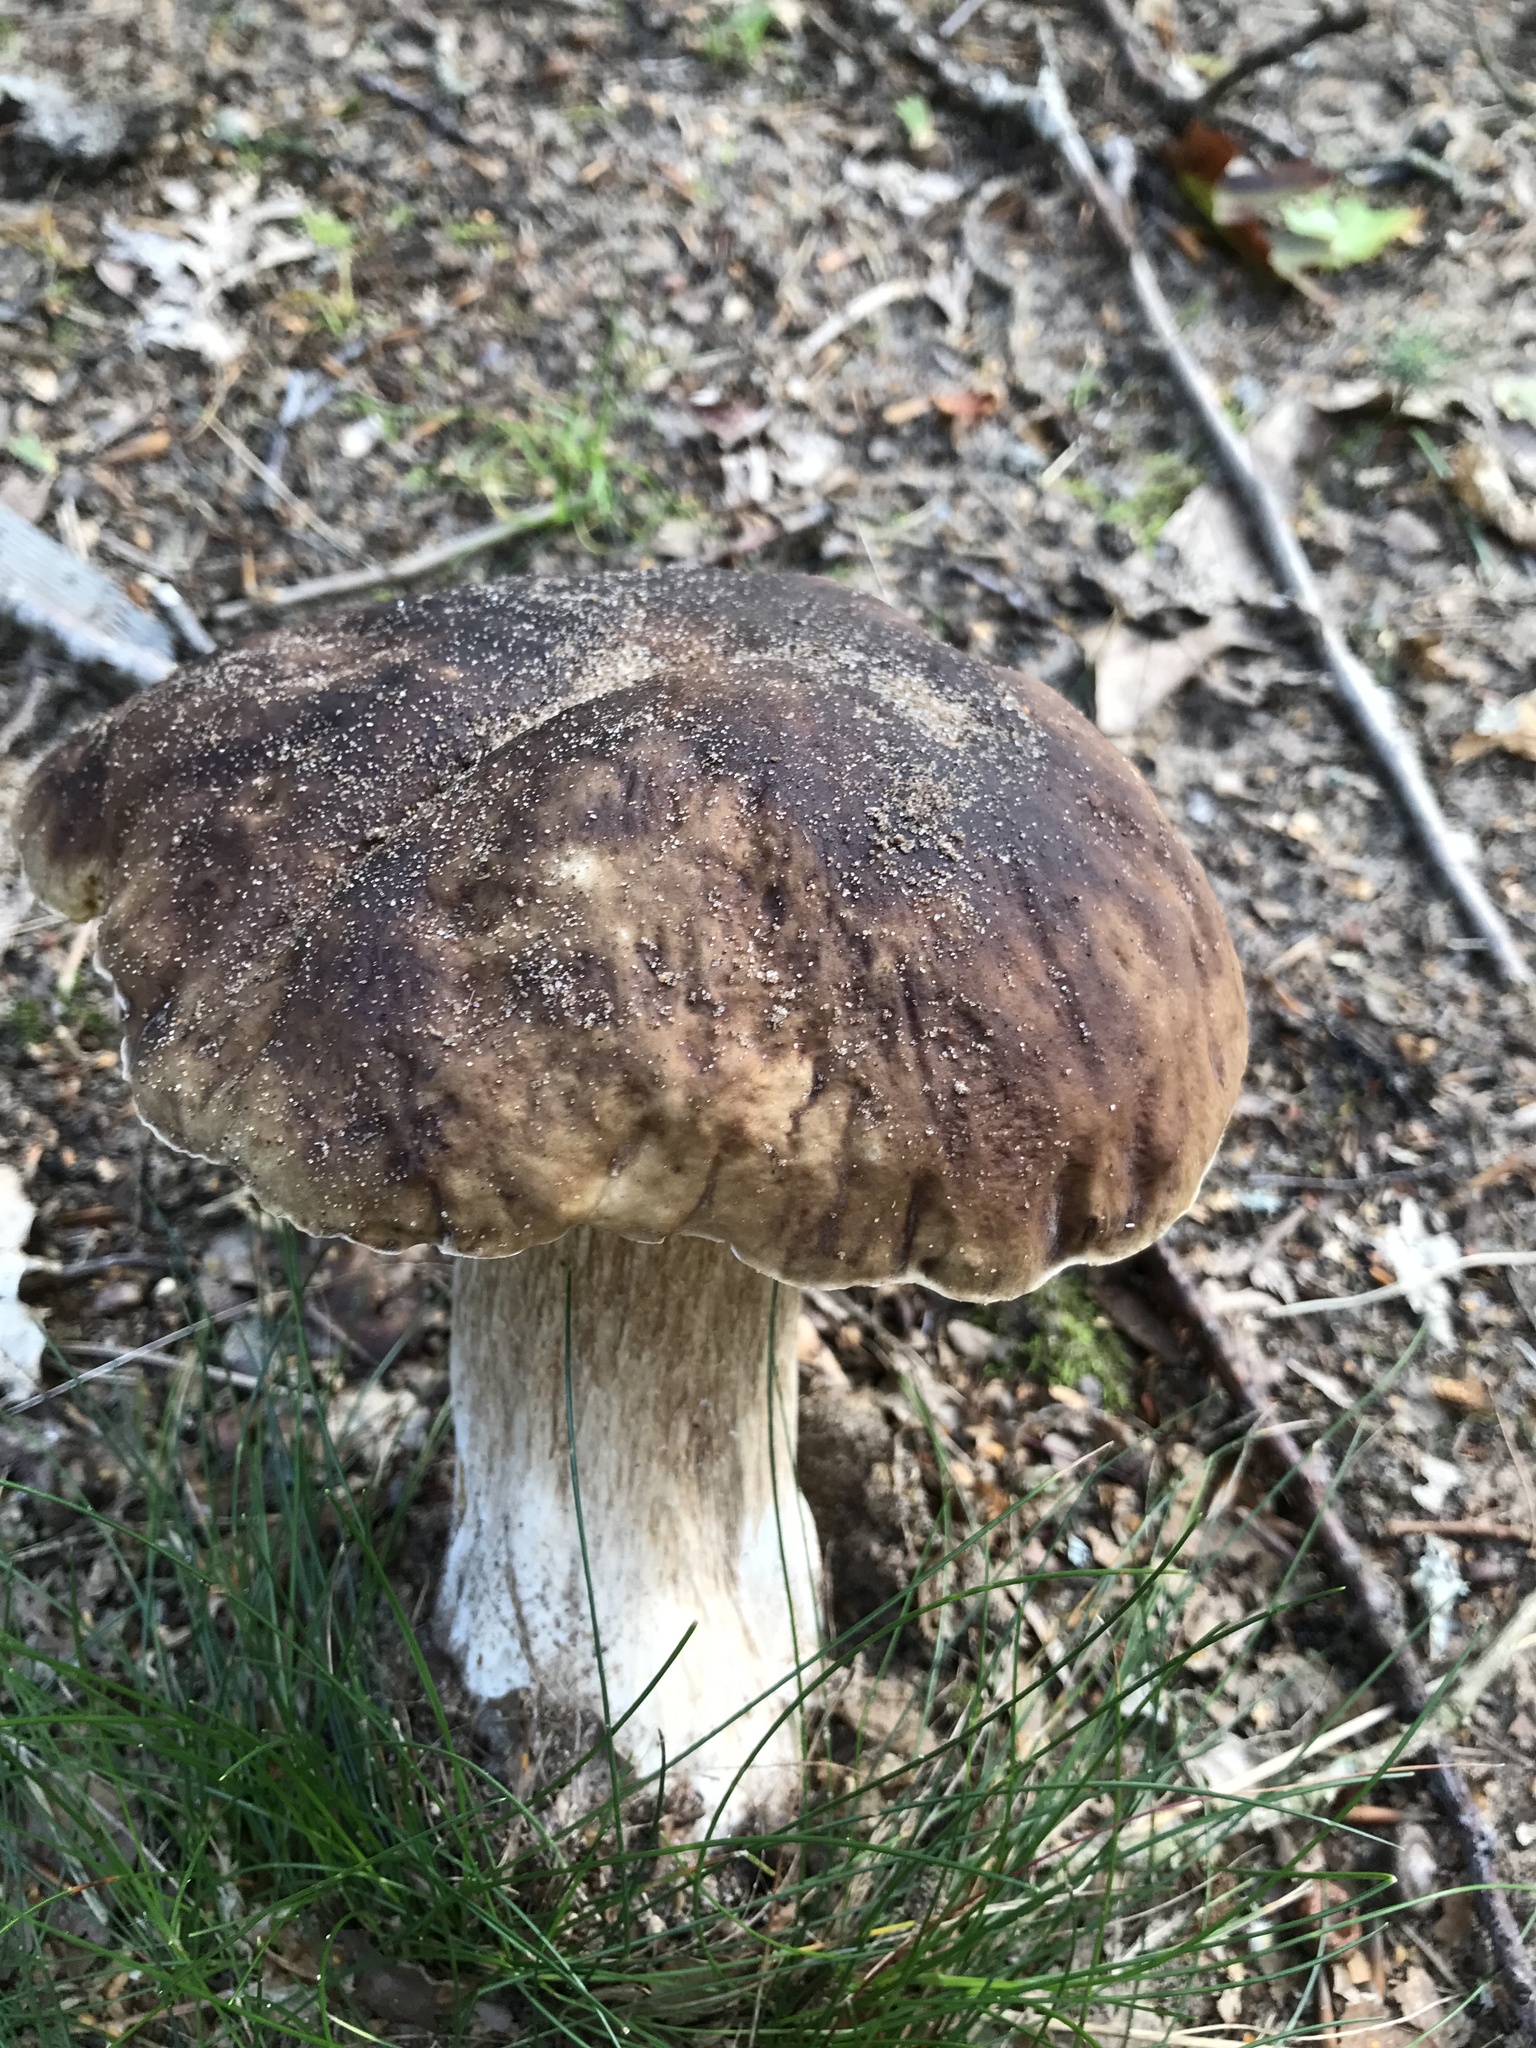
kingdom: Fungi
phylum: Basidiomycota
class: Agaricomycetes
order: Boletales
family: Boletaceae
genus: Boletus
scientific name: Boletus edulis
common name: Cep
